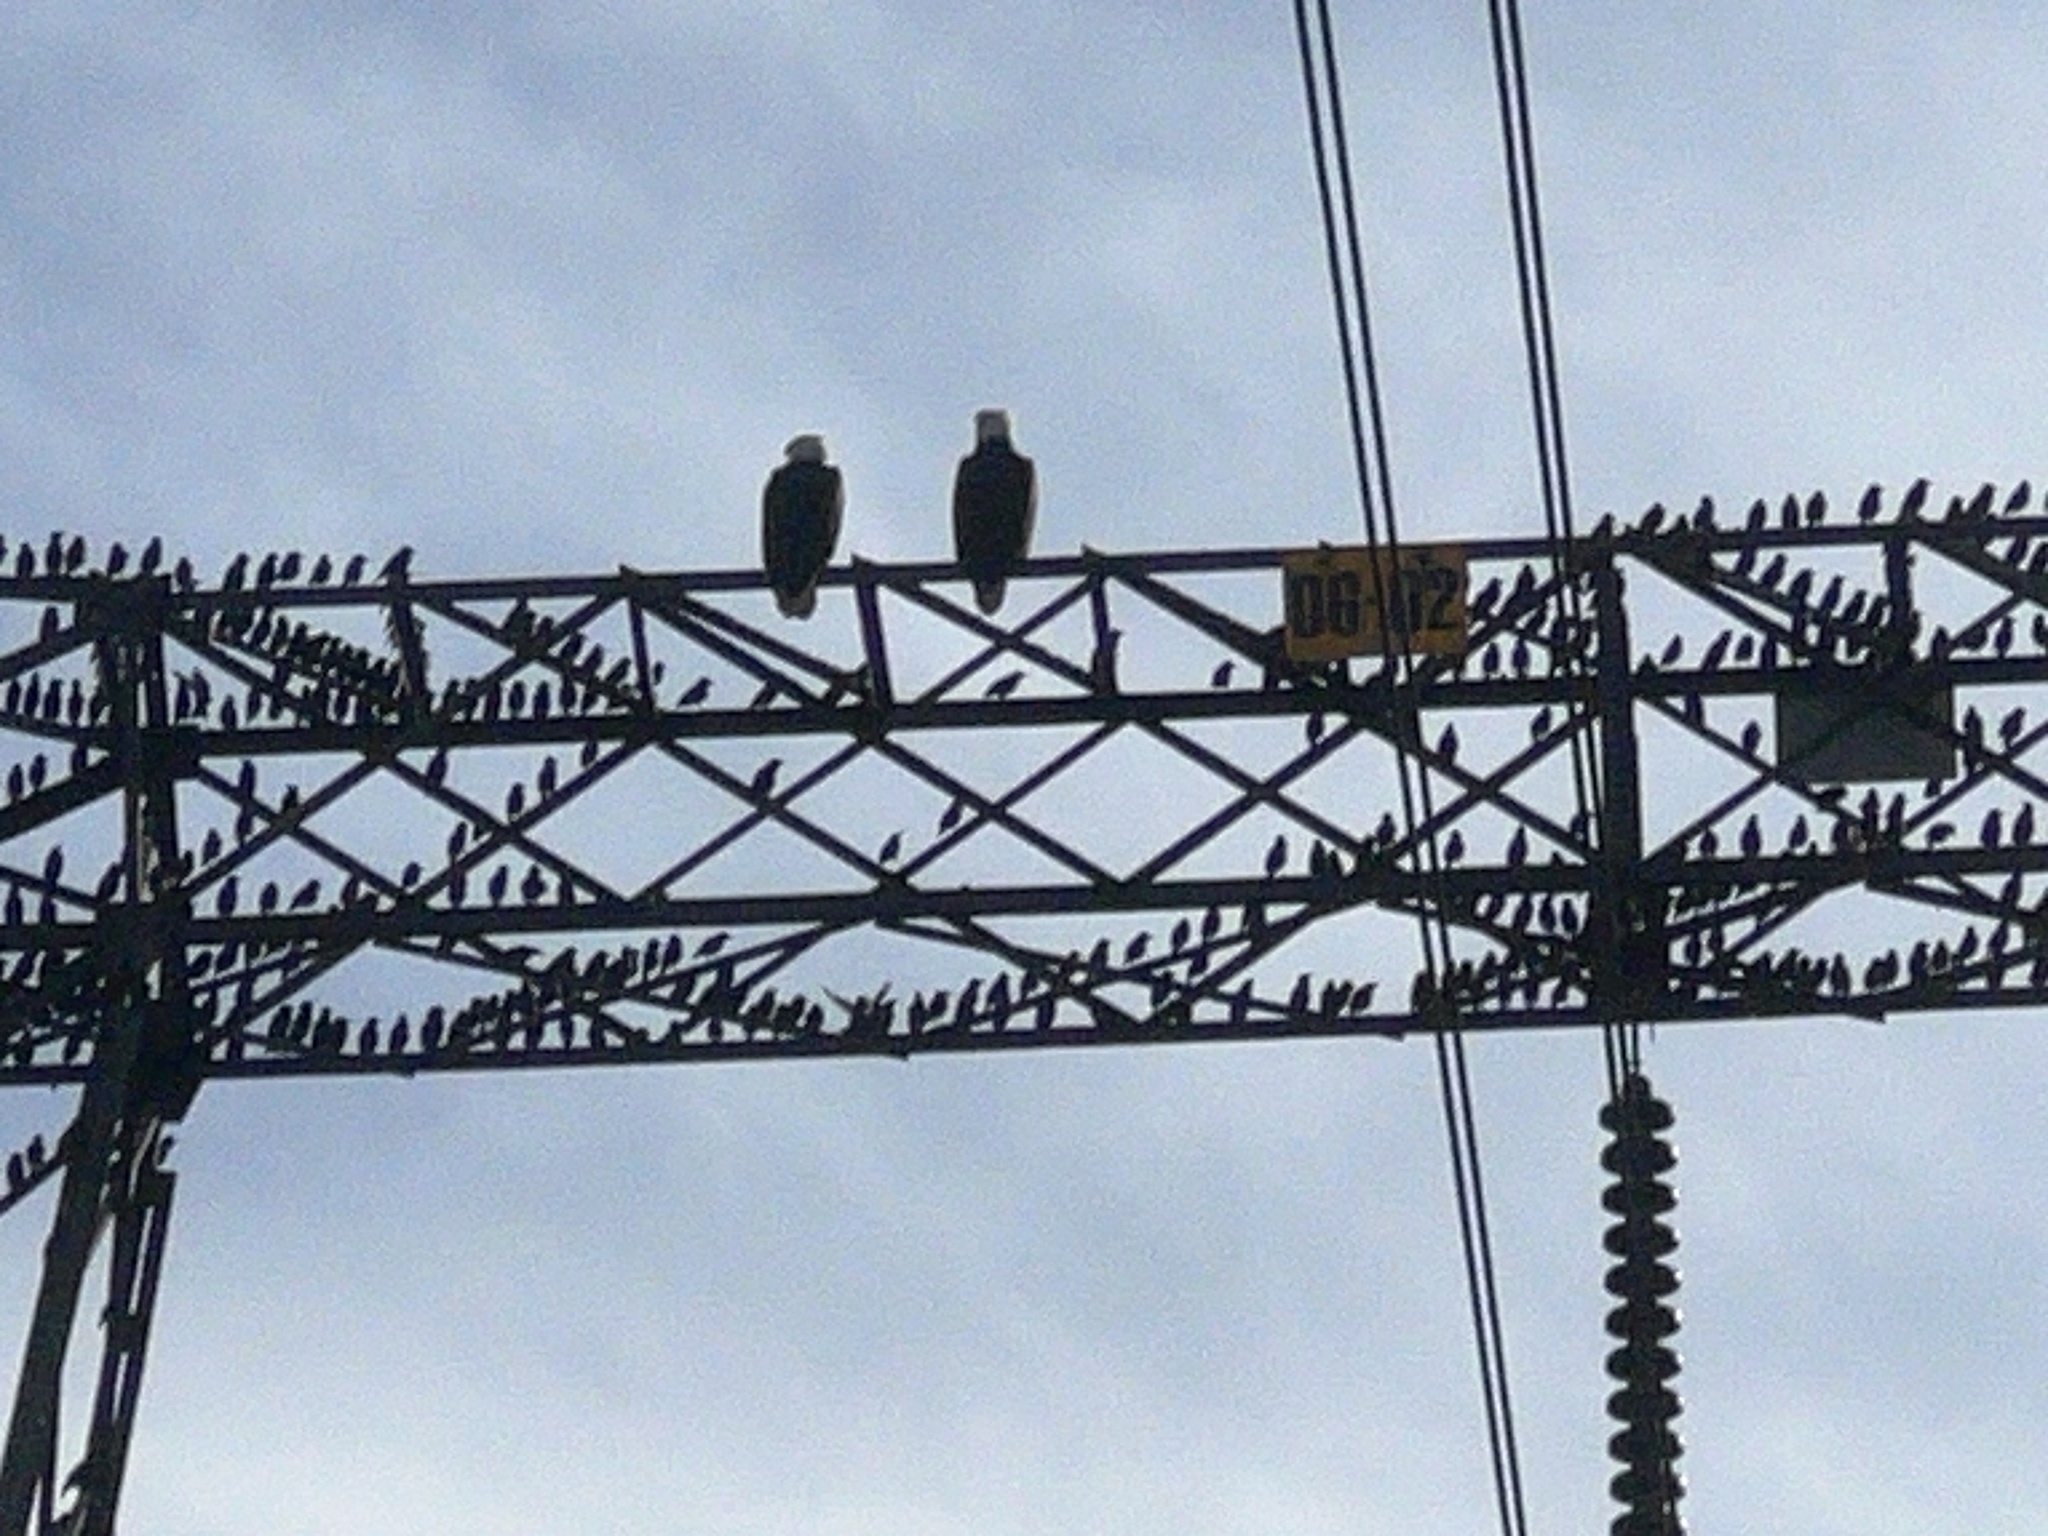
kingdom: Animalia
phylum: Chordata
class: Aves
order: Accipitriformes
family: Accipitridae
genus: Haliaeetus
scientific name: Haliaeetus leucocephalus
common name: Bald eagle
